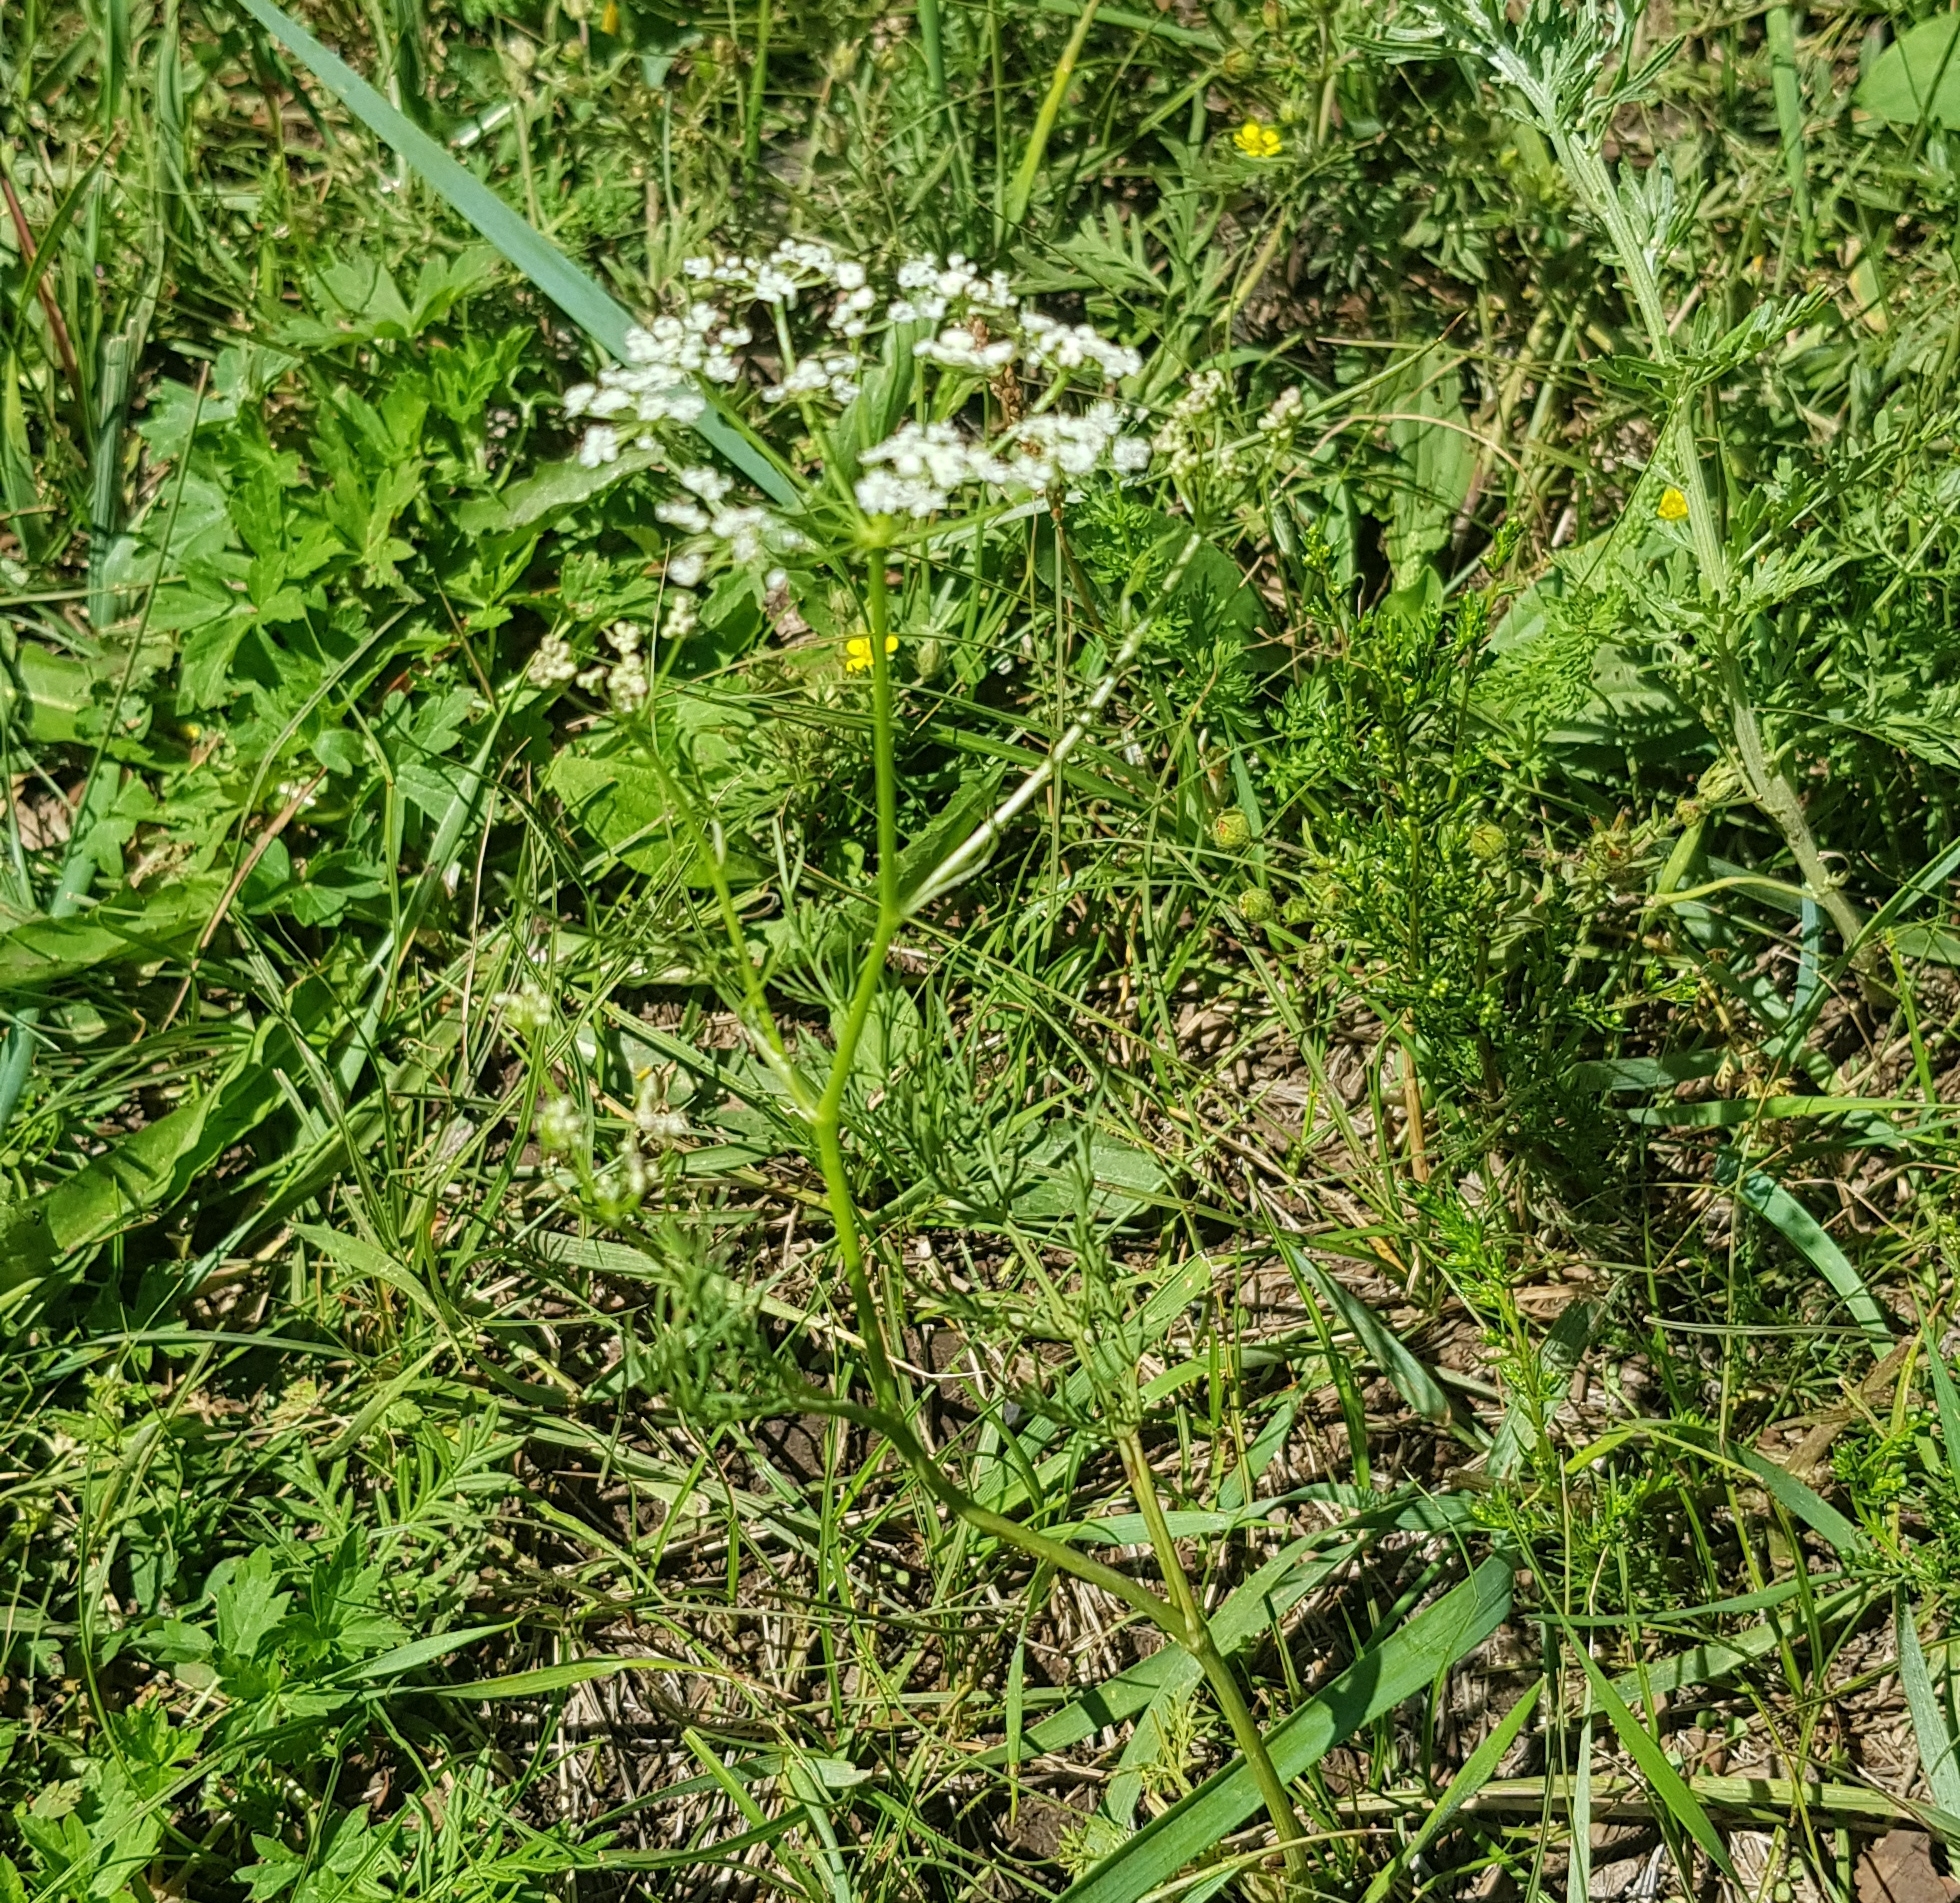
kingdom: Plantae
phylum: Tracheophyta
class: Magnoliopsida
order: Apiales
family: Apiaceae
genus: Carum
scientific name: Carum carvi
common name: Caraway
